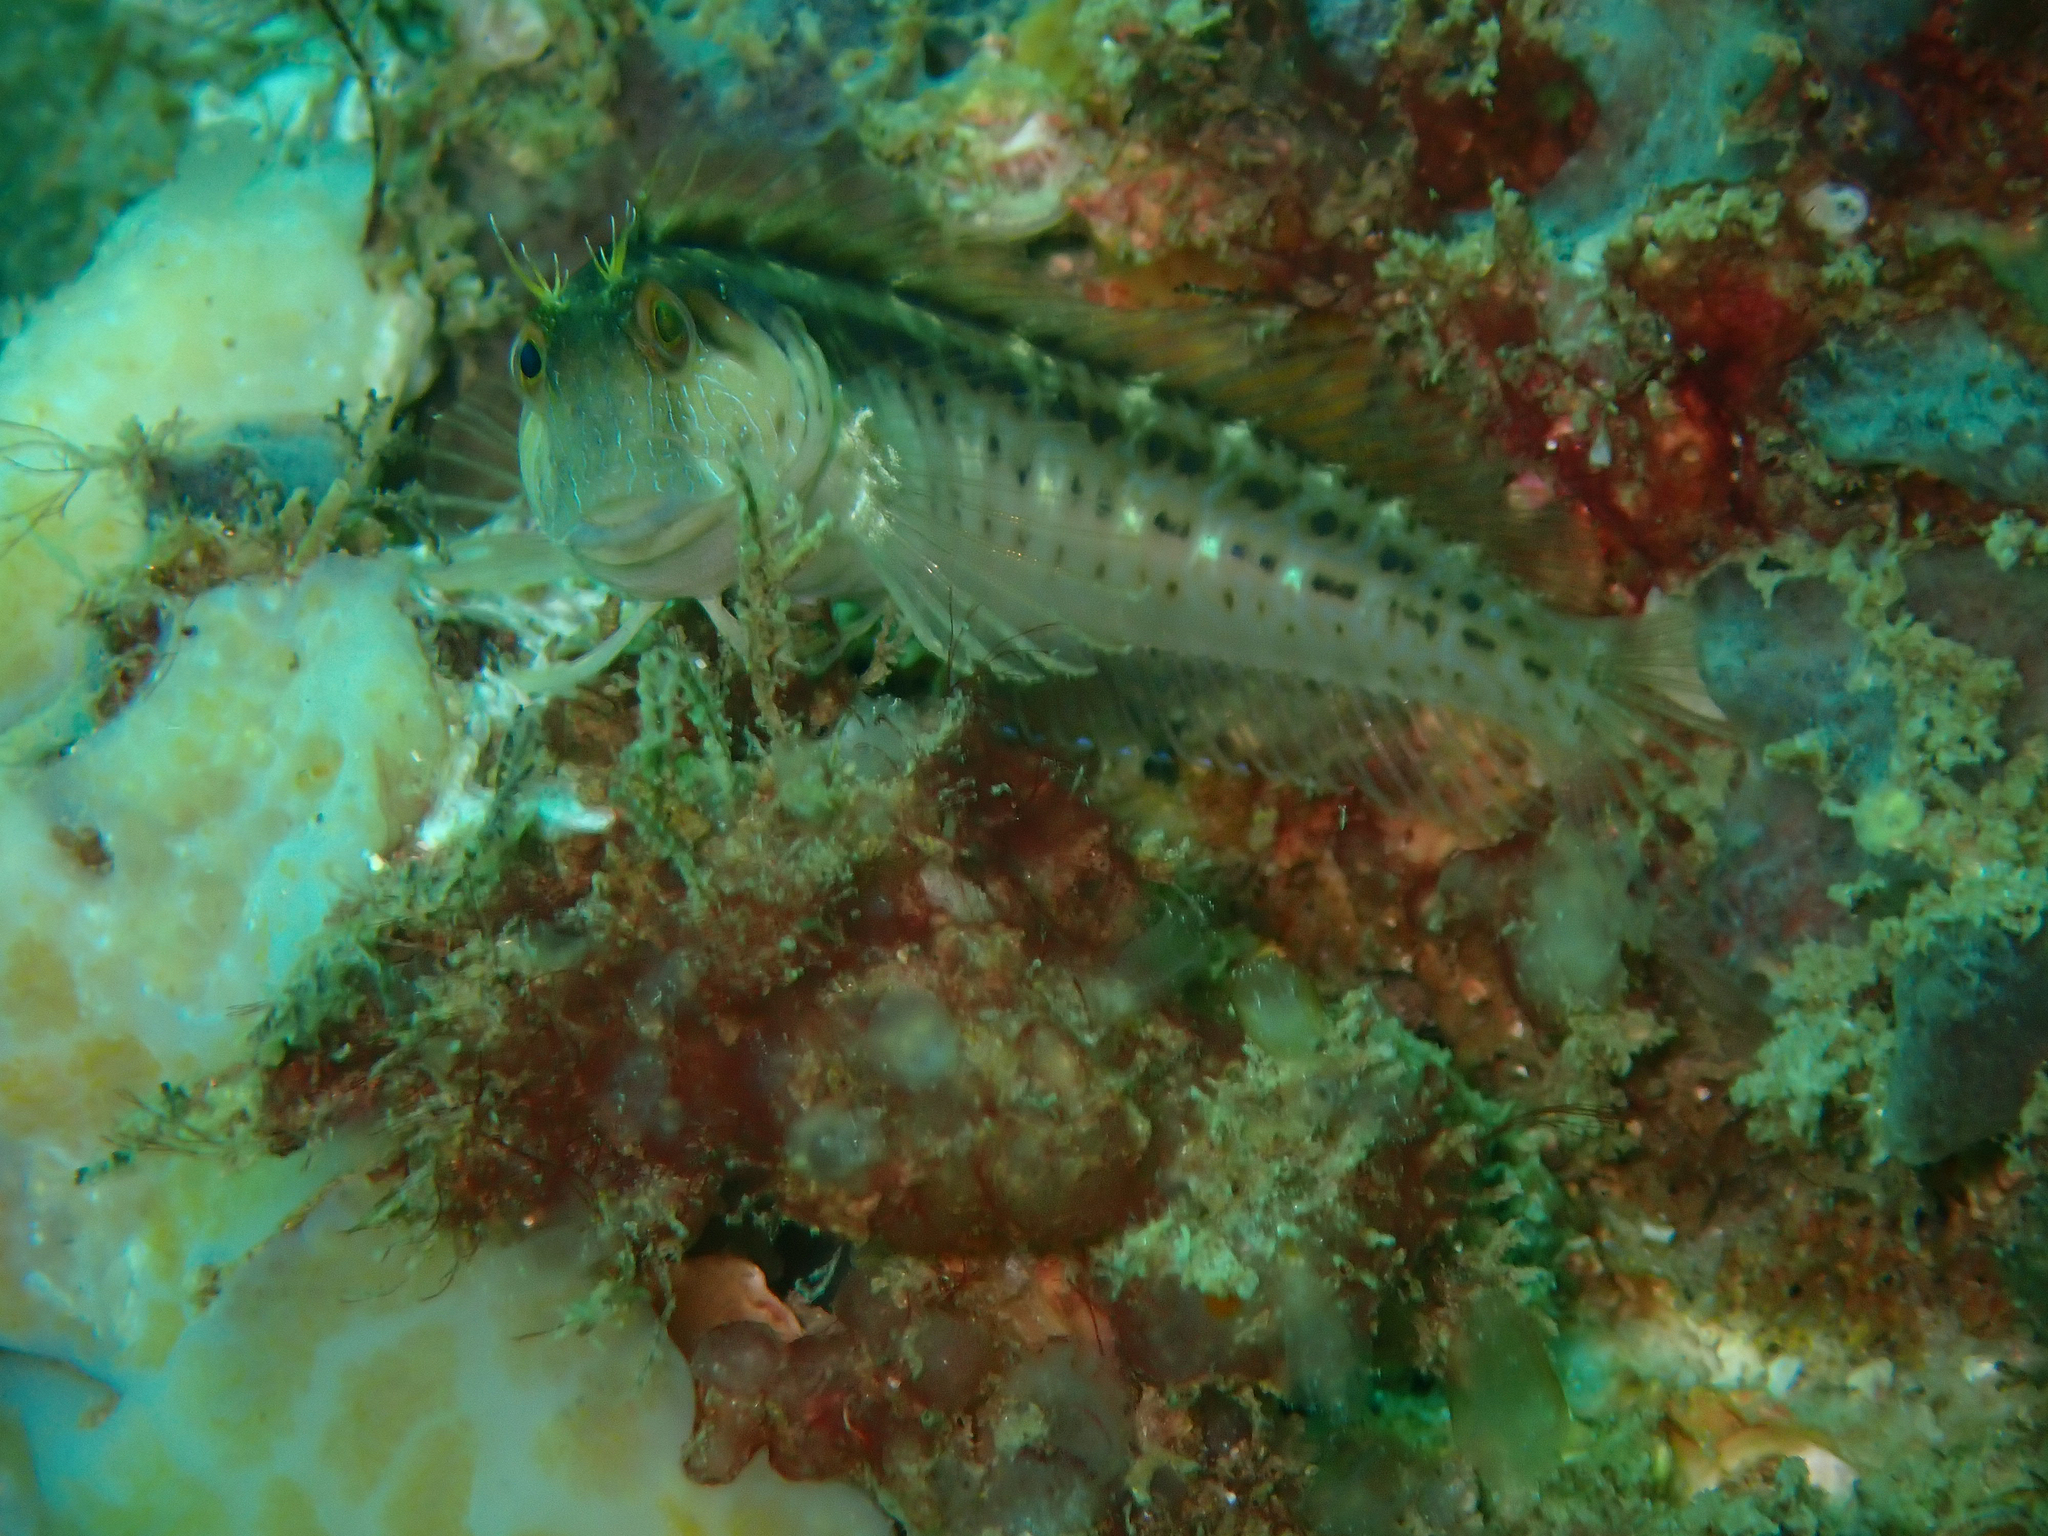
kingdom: Animalia
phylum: Chordata
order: Perciformes
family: Blenniidae
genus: Parablennius
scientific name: Parablennius marmoreus
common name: Seaweed blenny
